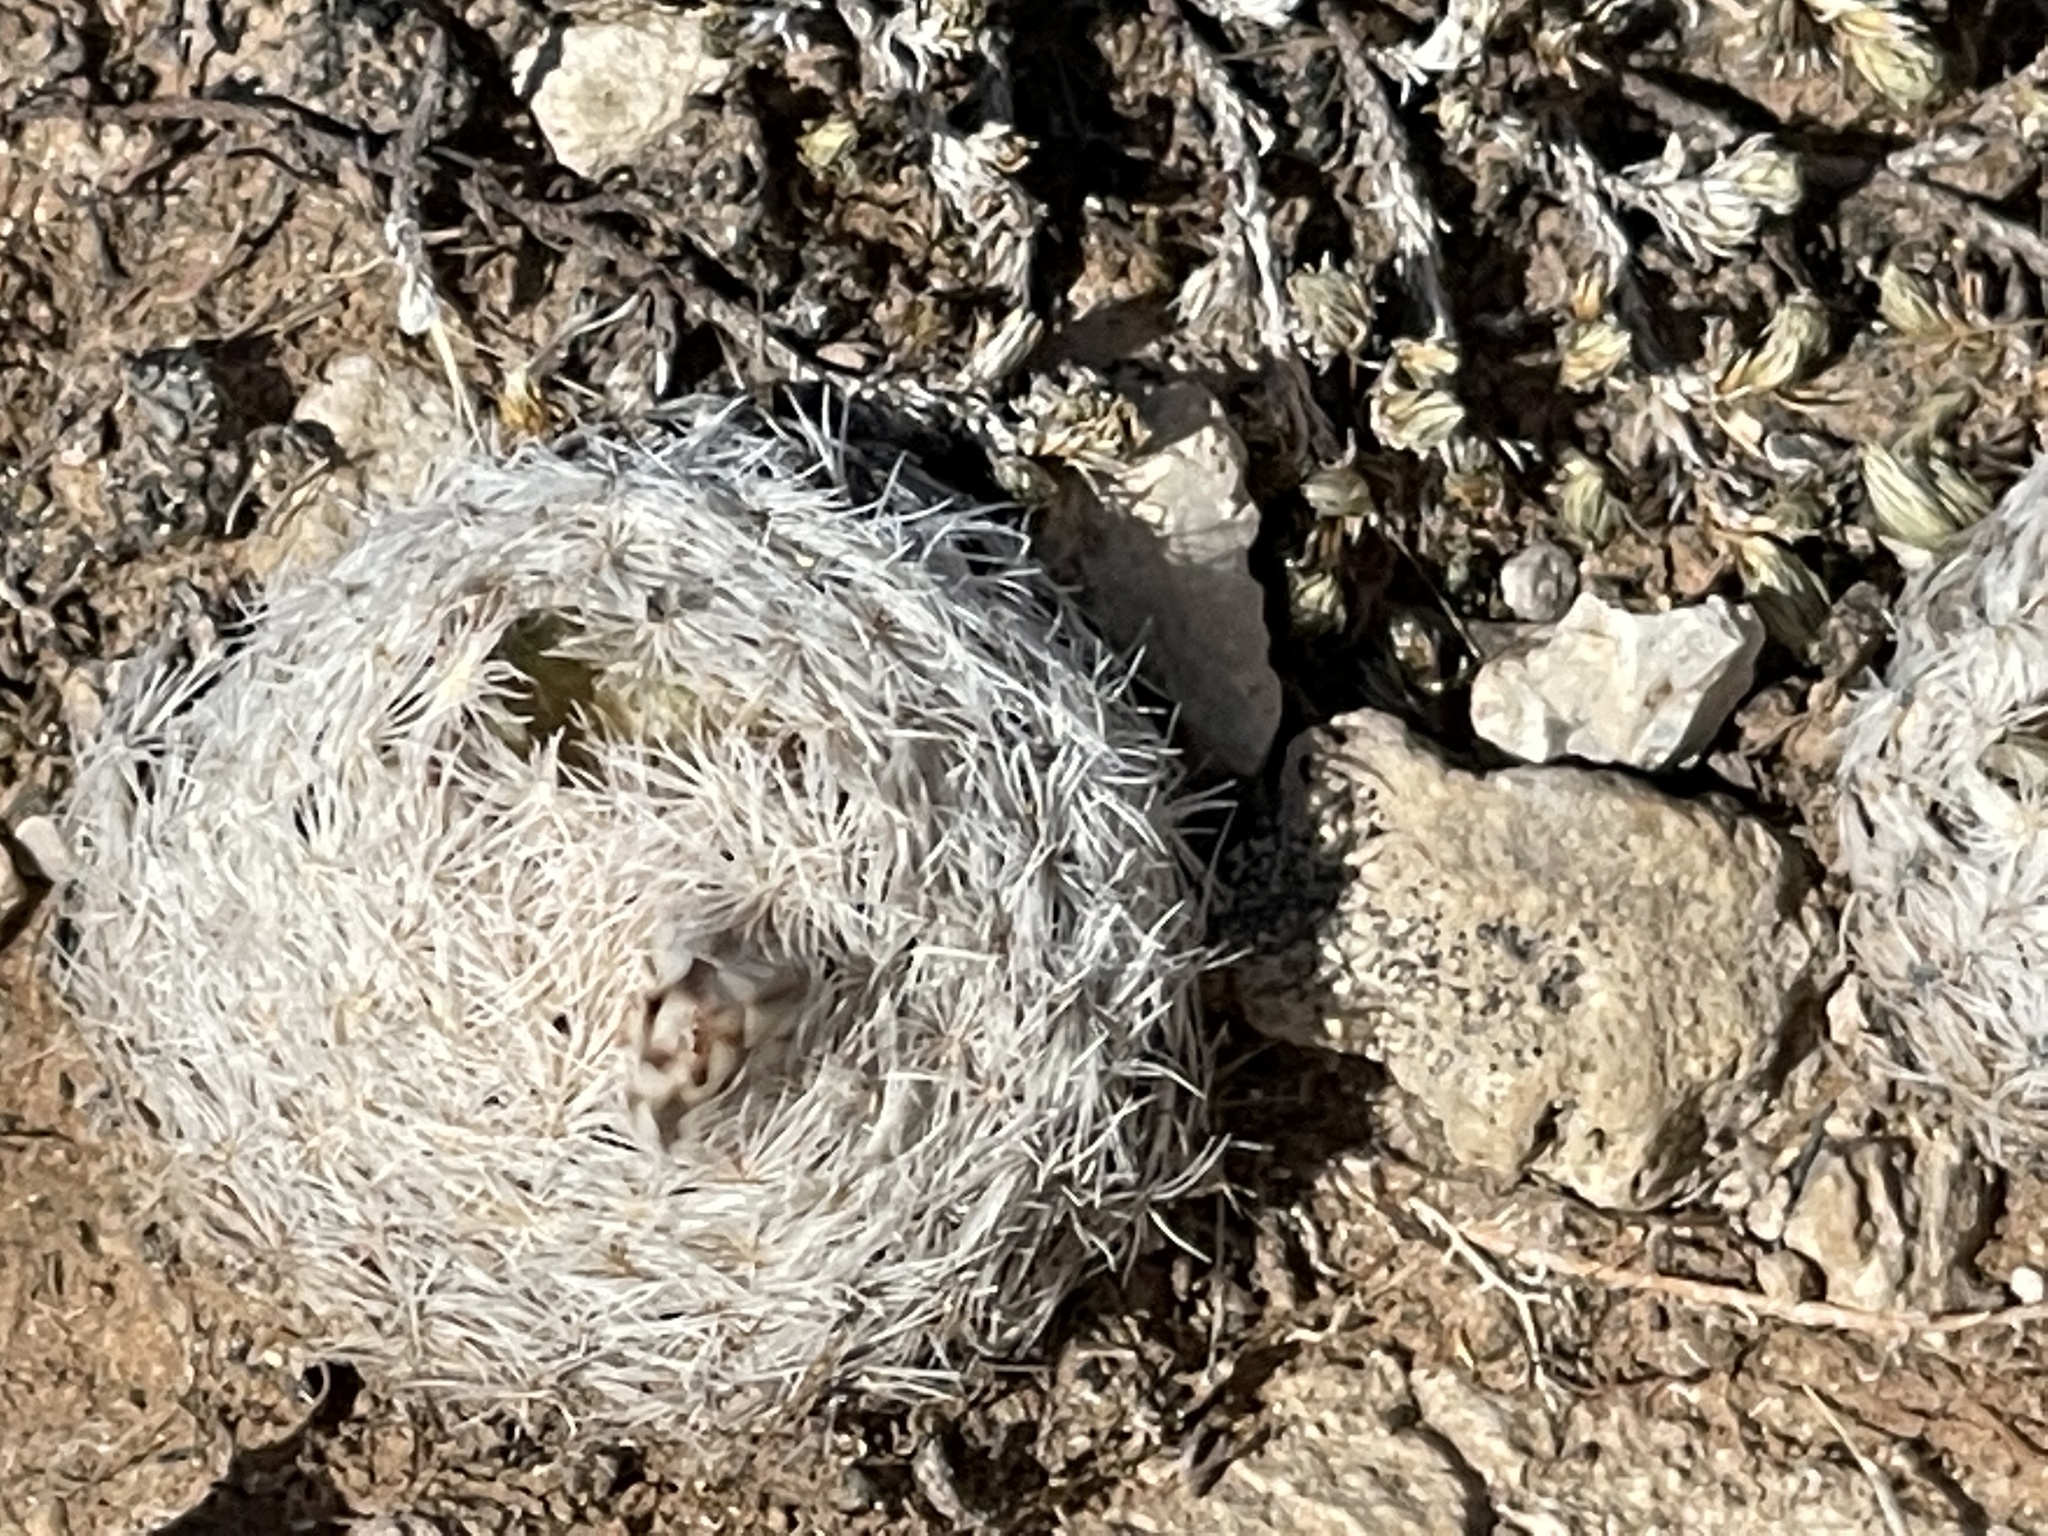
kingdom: Plantae
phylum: Tracheophyta
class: Magnoliopsida
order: Caryophyllales
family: Cactaceae
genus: Mammillaria
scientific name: Mammillaria lasiacantha
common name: Lace-spine nipple cactus
